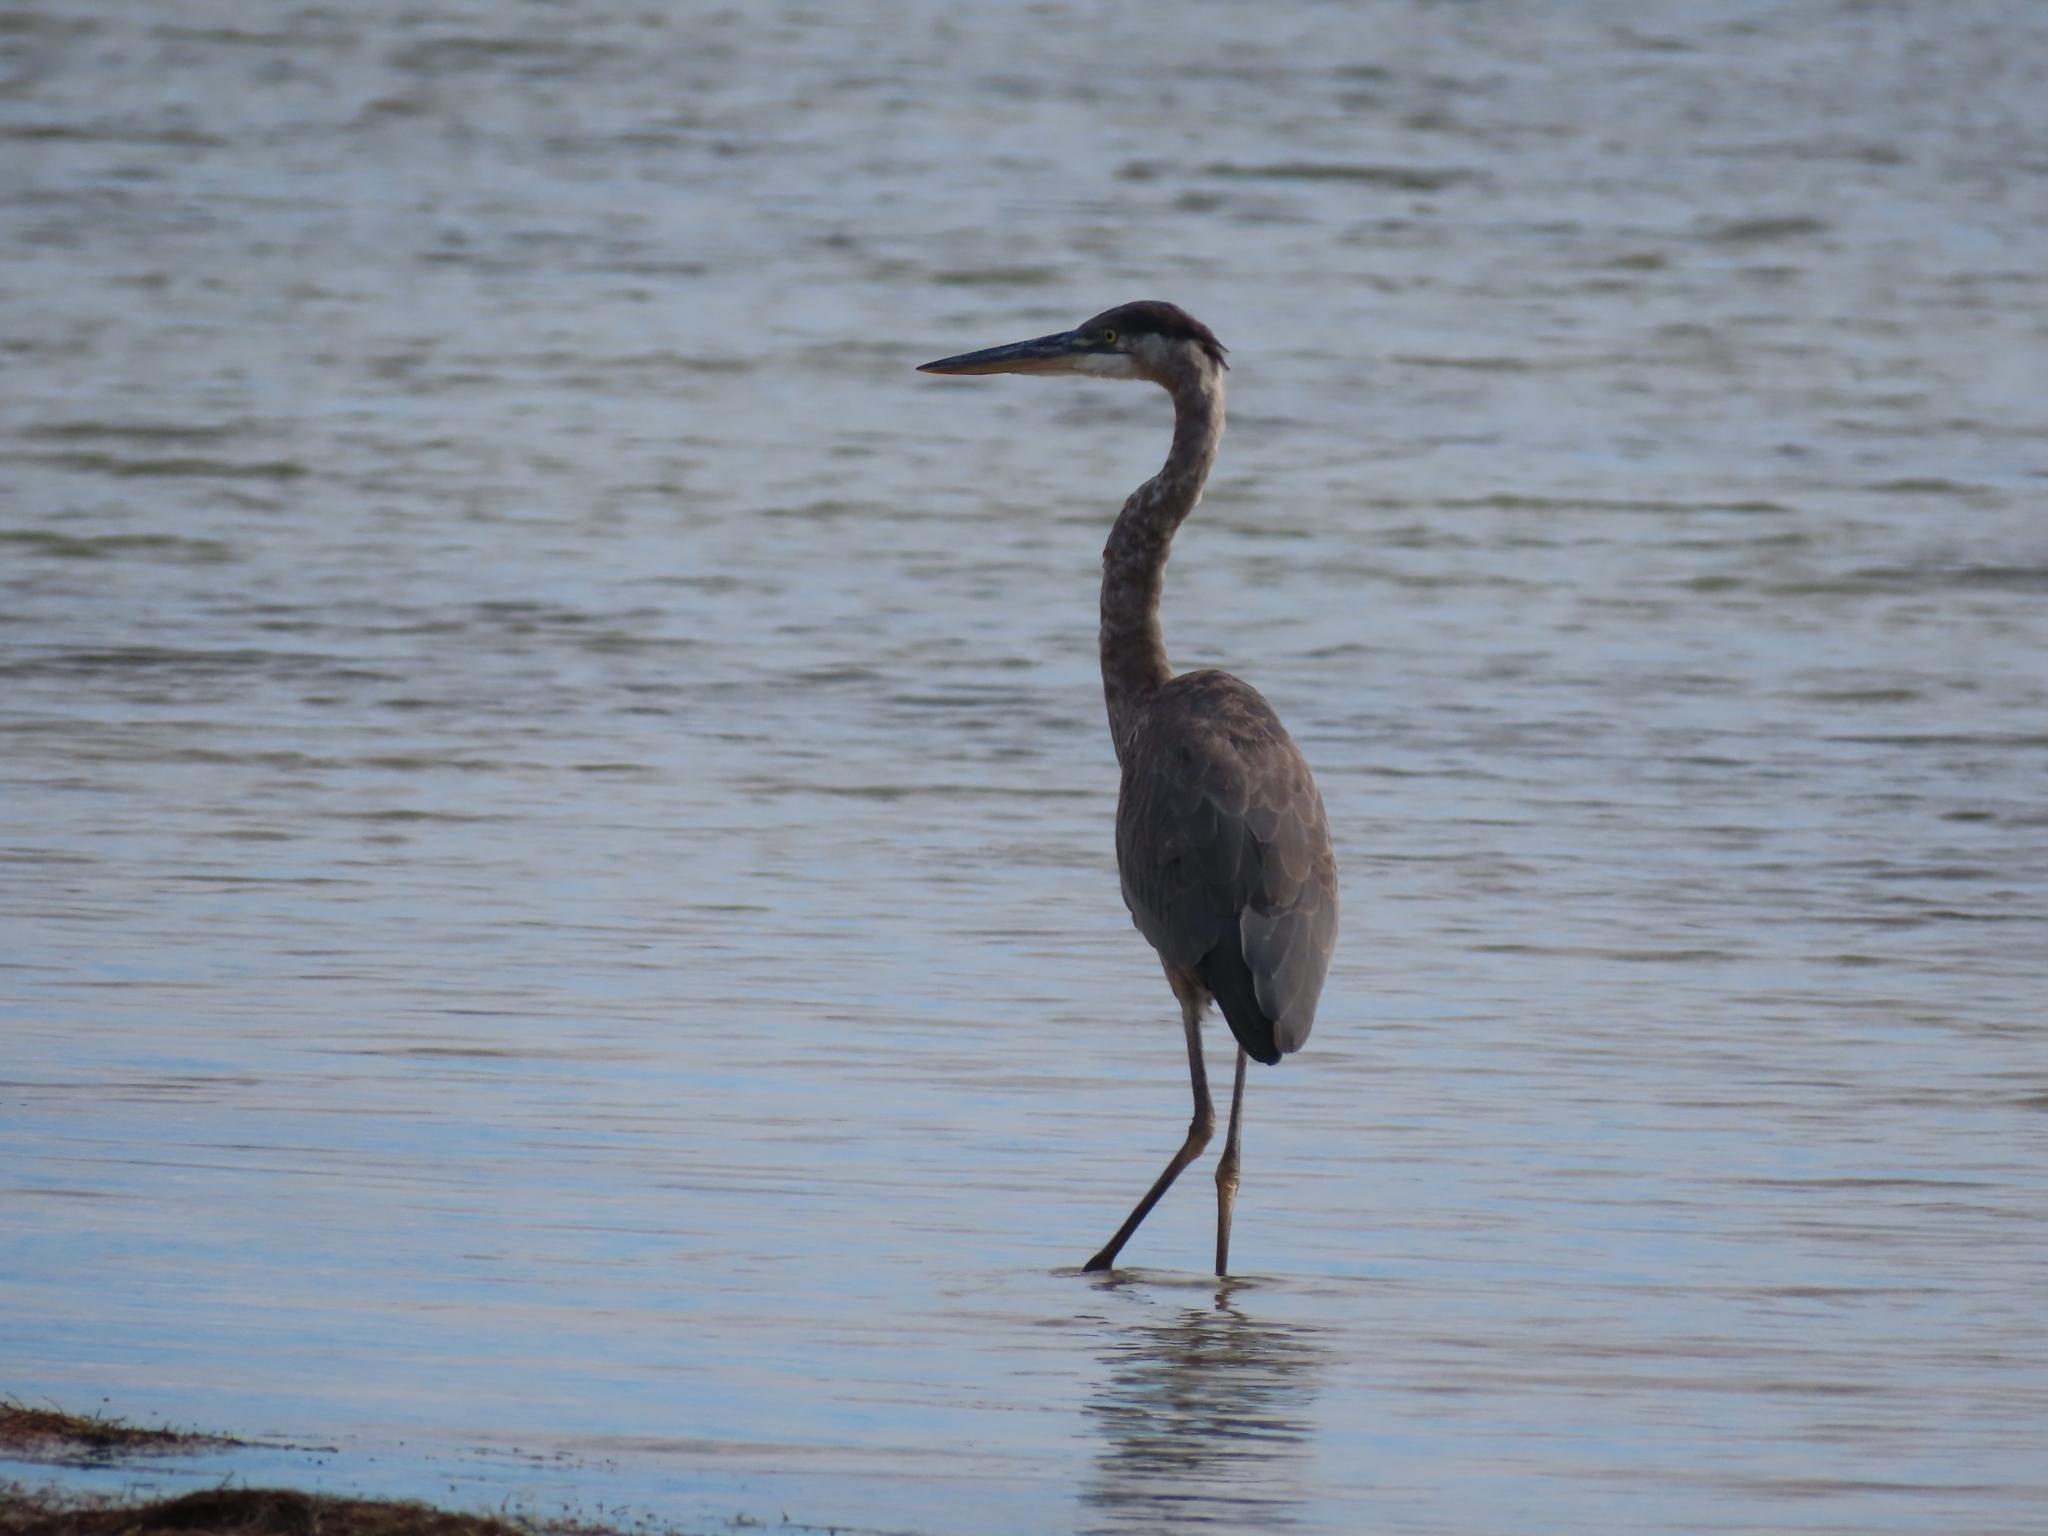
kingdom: Animalia
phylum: Chordata
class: Aves
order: Pelecaniformes
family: Ardeidae
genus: Ardea
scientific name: Ardea herodias
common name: Great blue heron
